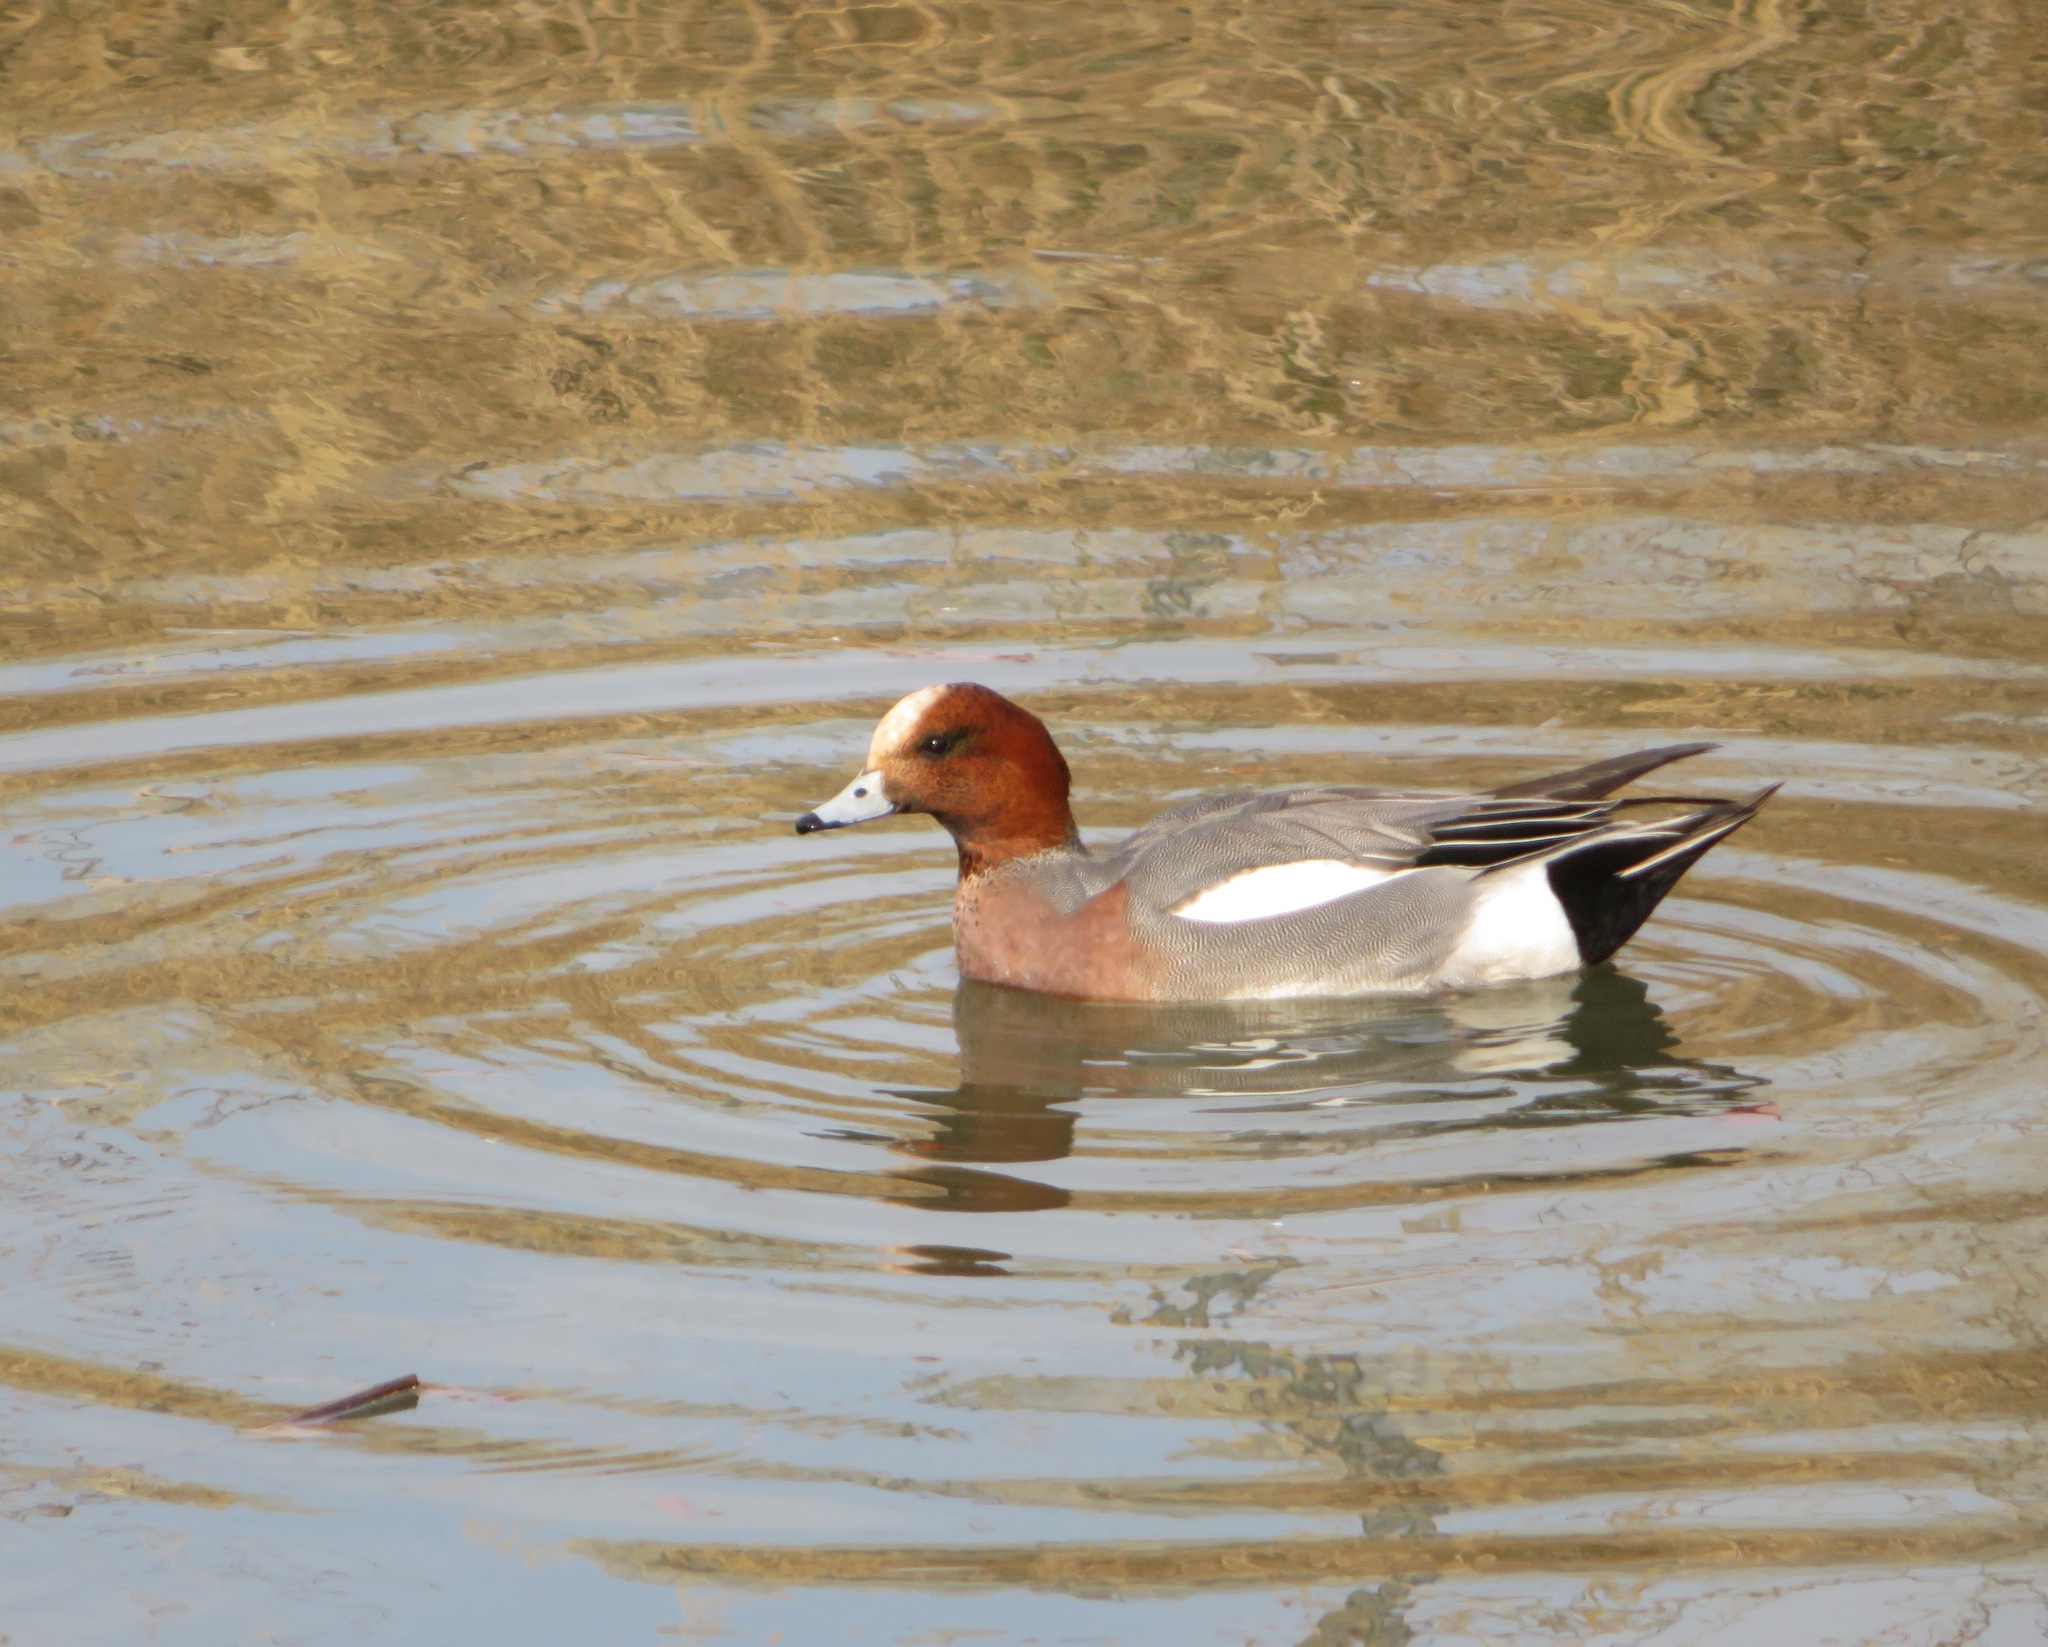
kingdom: Animalia
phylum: Chordata
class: Aves
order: Anseriformes
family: Anatidae
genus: Mareca
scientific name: Mareca penelope
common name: Eurasian wigeon
